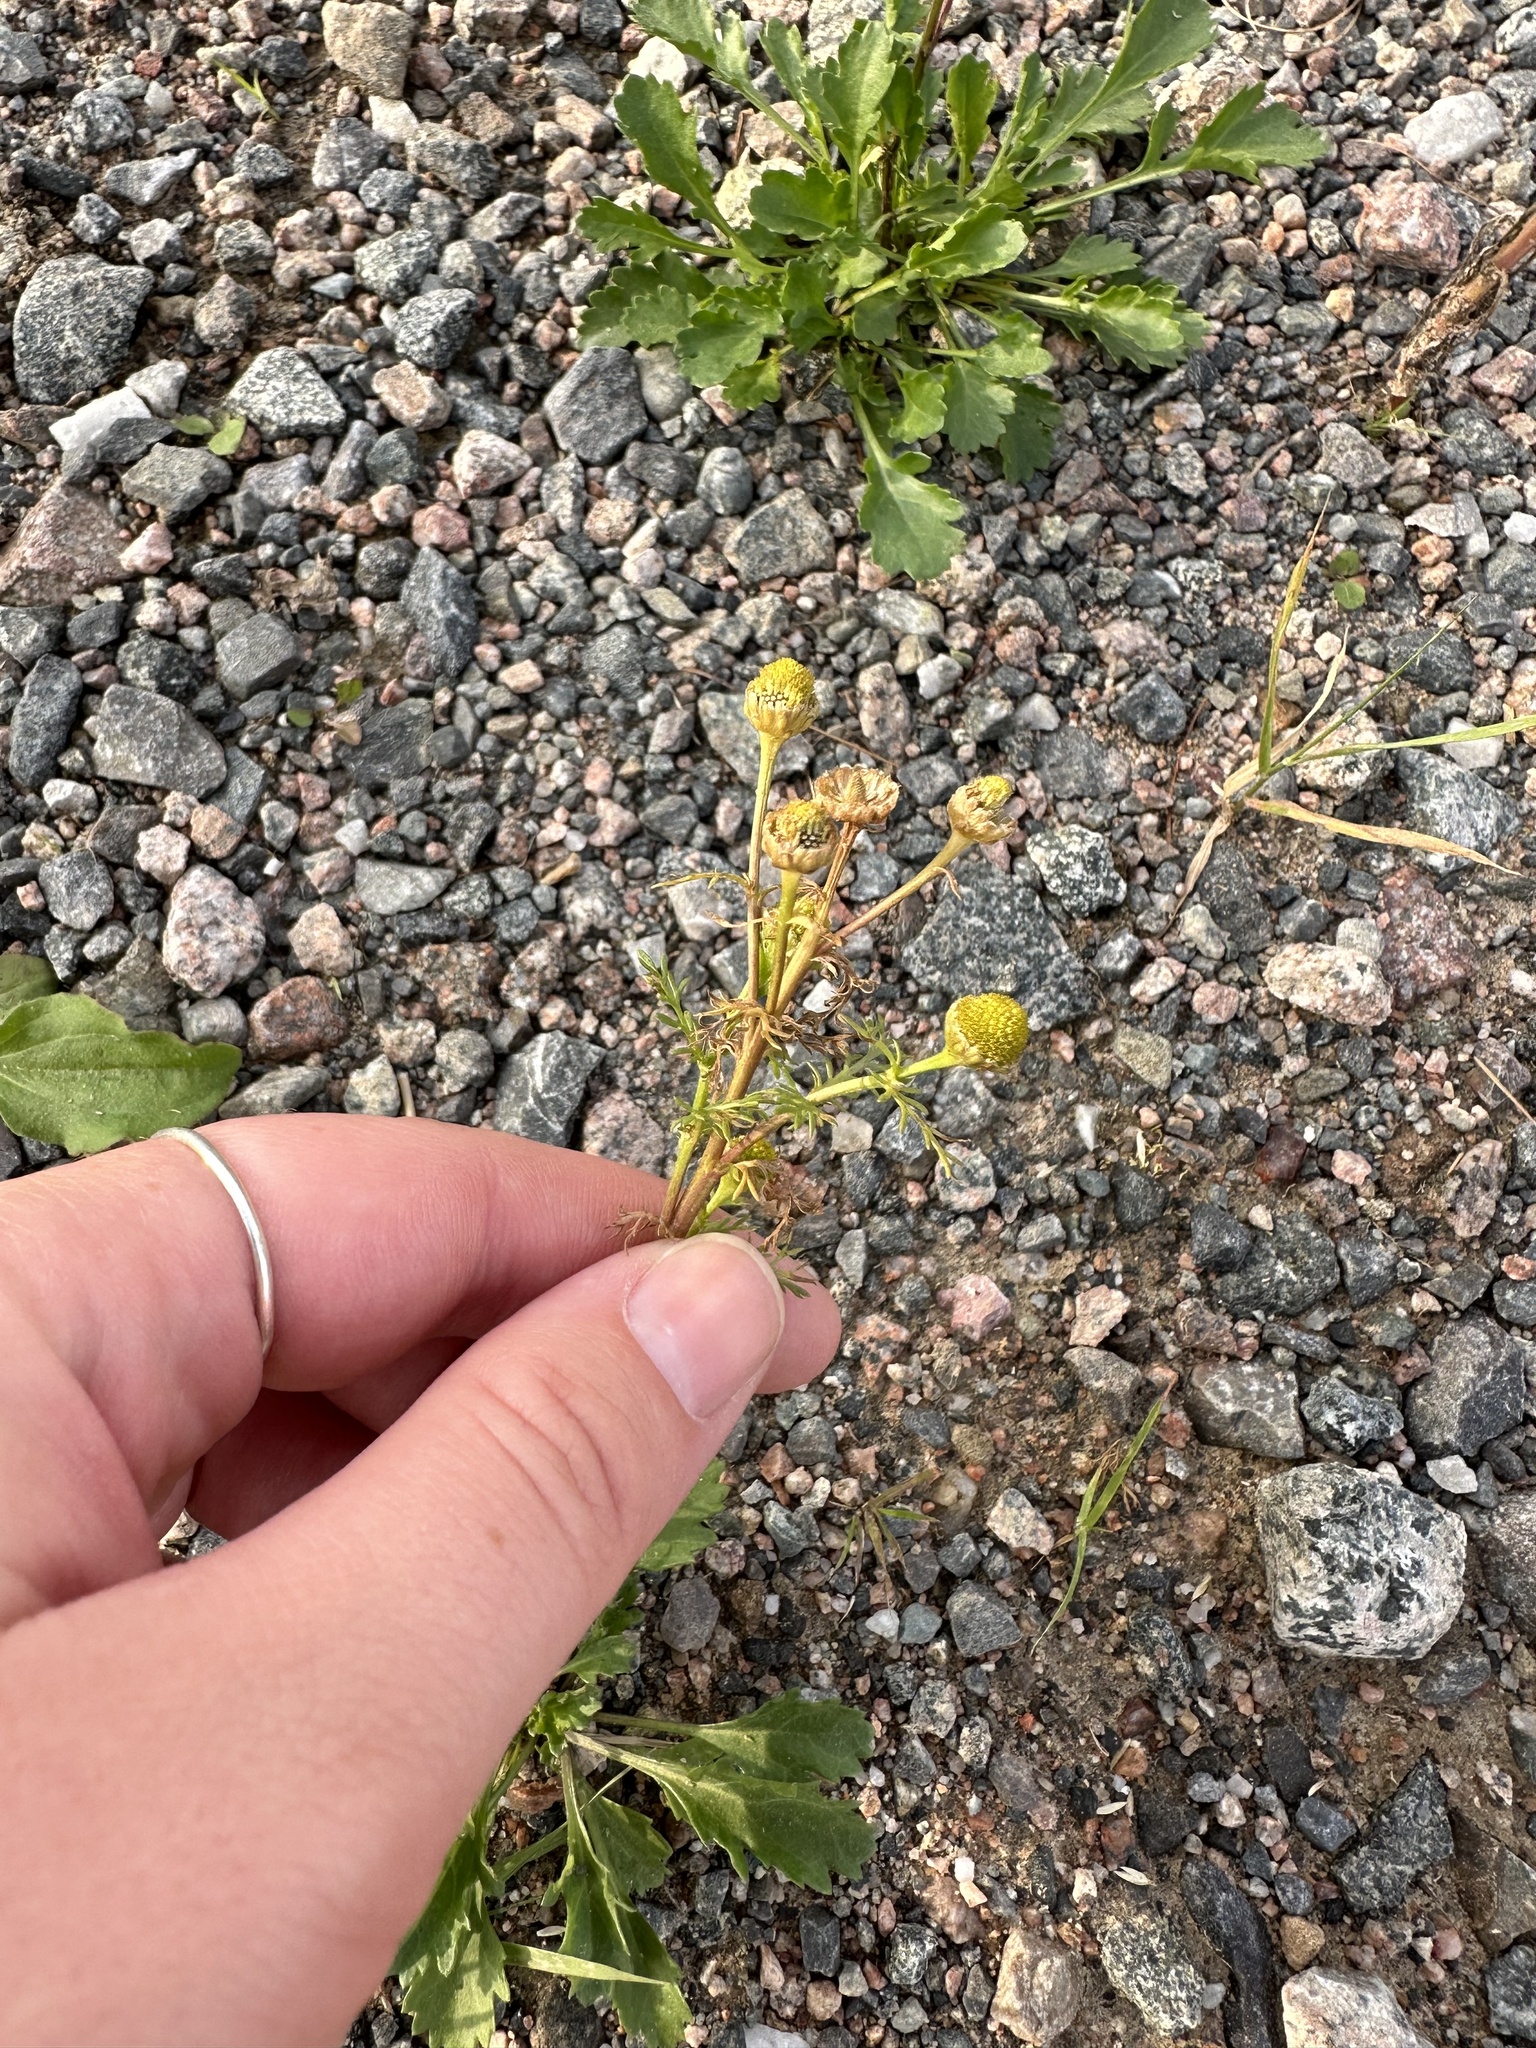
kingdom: Plantae
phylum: Tracheophyta
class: Magnoliopsida
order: Asterales
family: Asteraceae
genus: Matricaria
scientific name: Matricaria discoidea
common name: Disc mayweed
